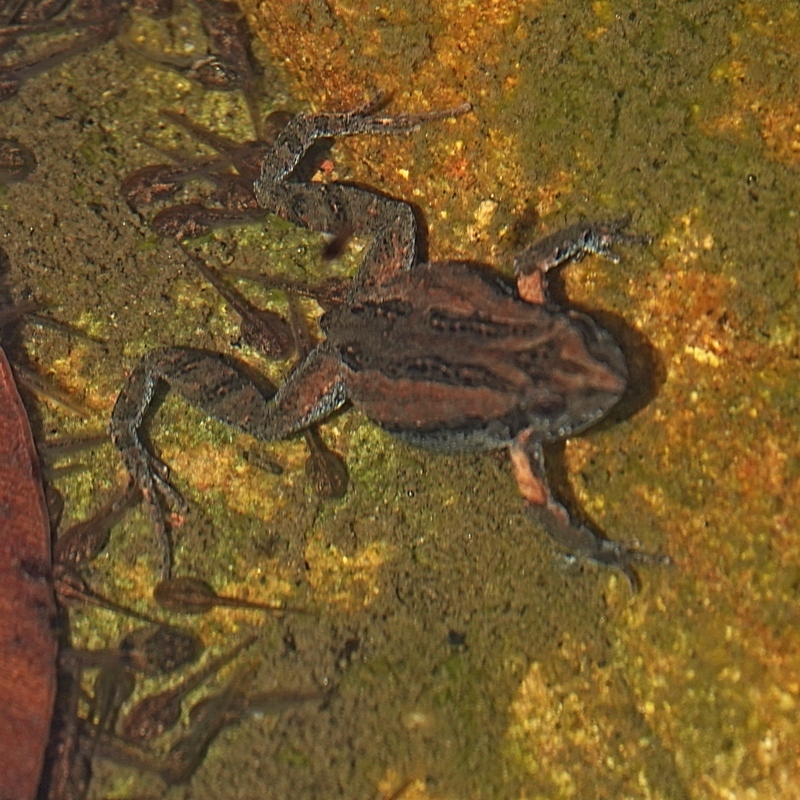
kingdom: Animalia
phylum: Chordata
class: Amphibia
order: Anura
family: Myobatrachidae
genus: Crinia
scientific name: Crinia signifera
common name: Brown froglet
